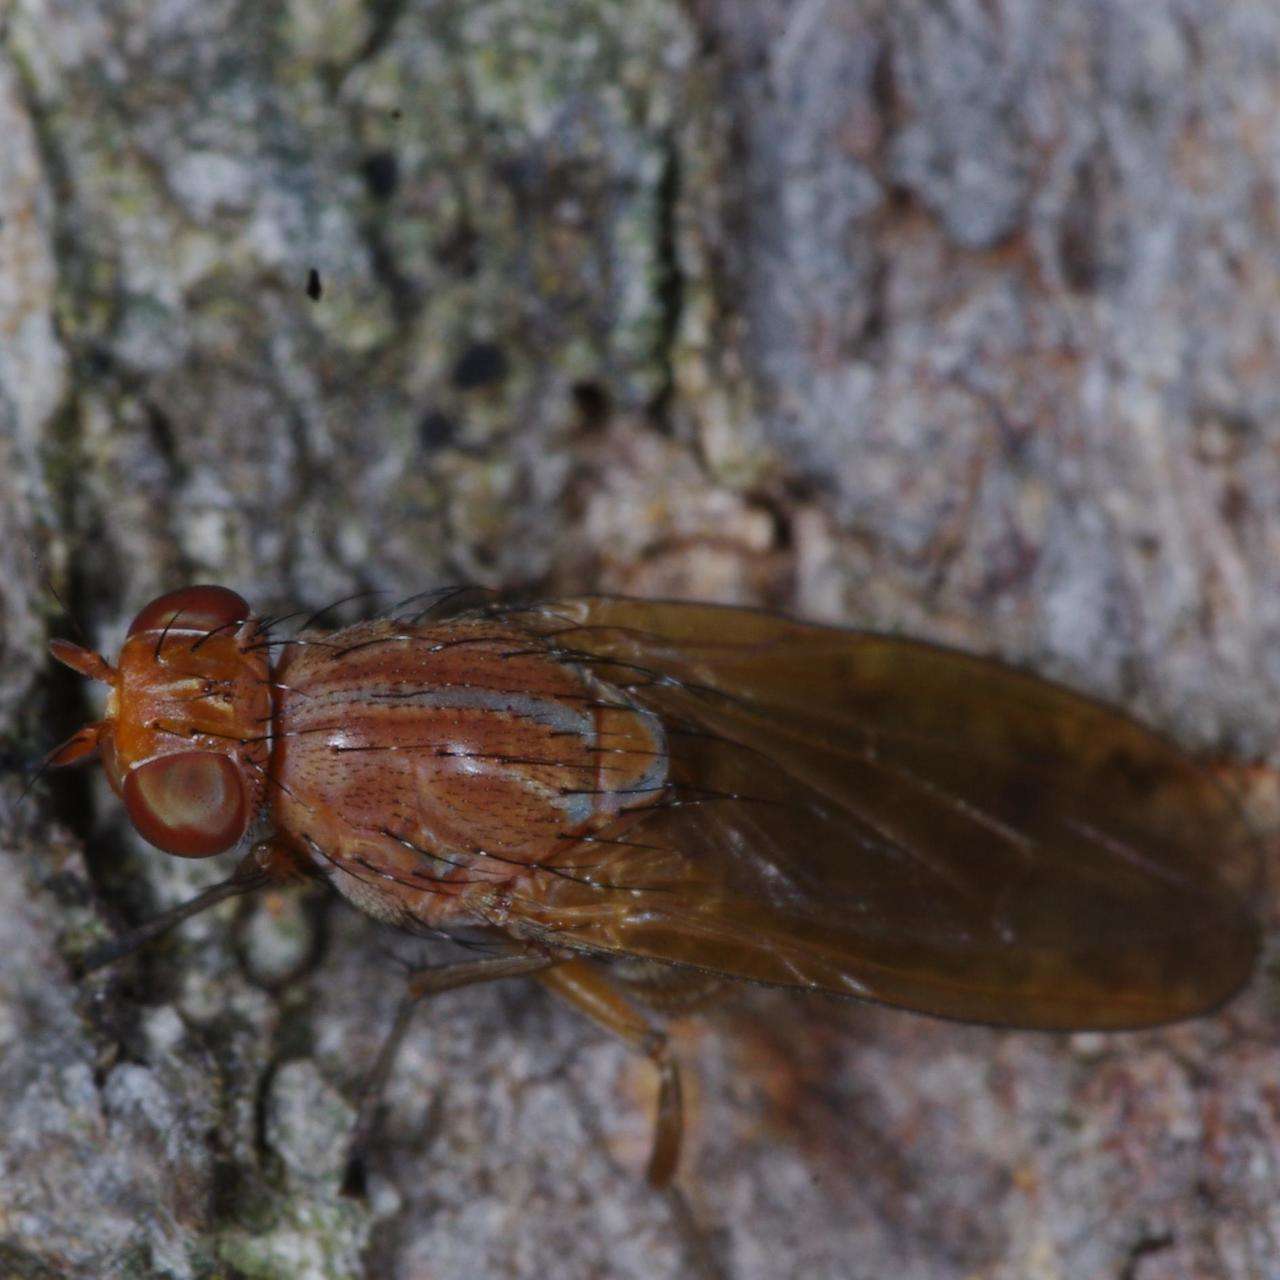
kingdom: Animalia
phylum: Arthropoda
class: Insecta
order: Diptera
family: Lauxaniidae
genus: Meiosimyza
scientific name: Meiosimyza
